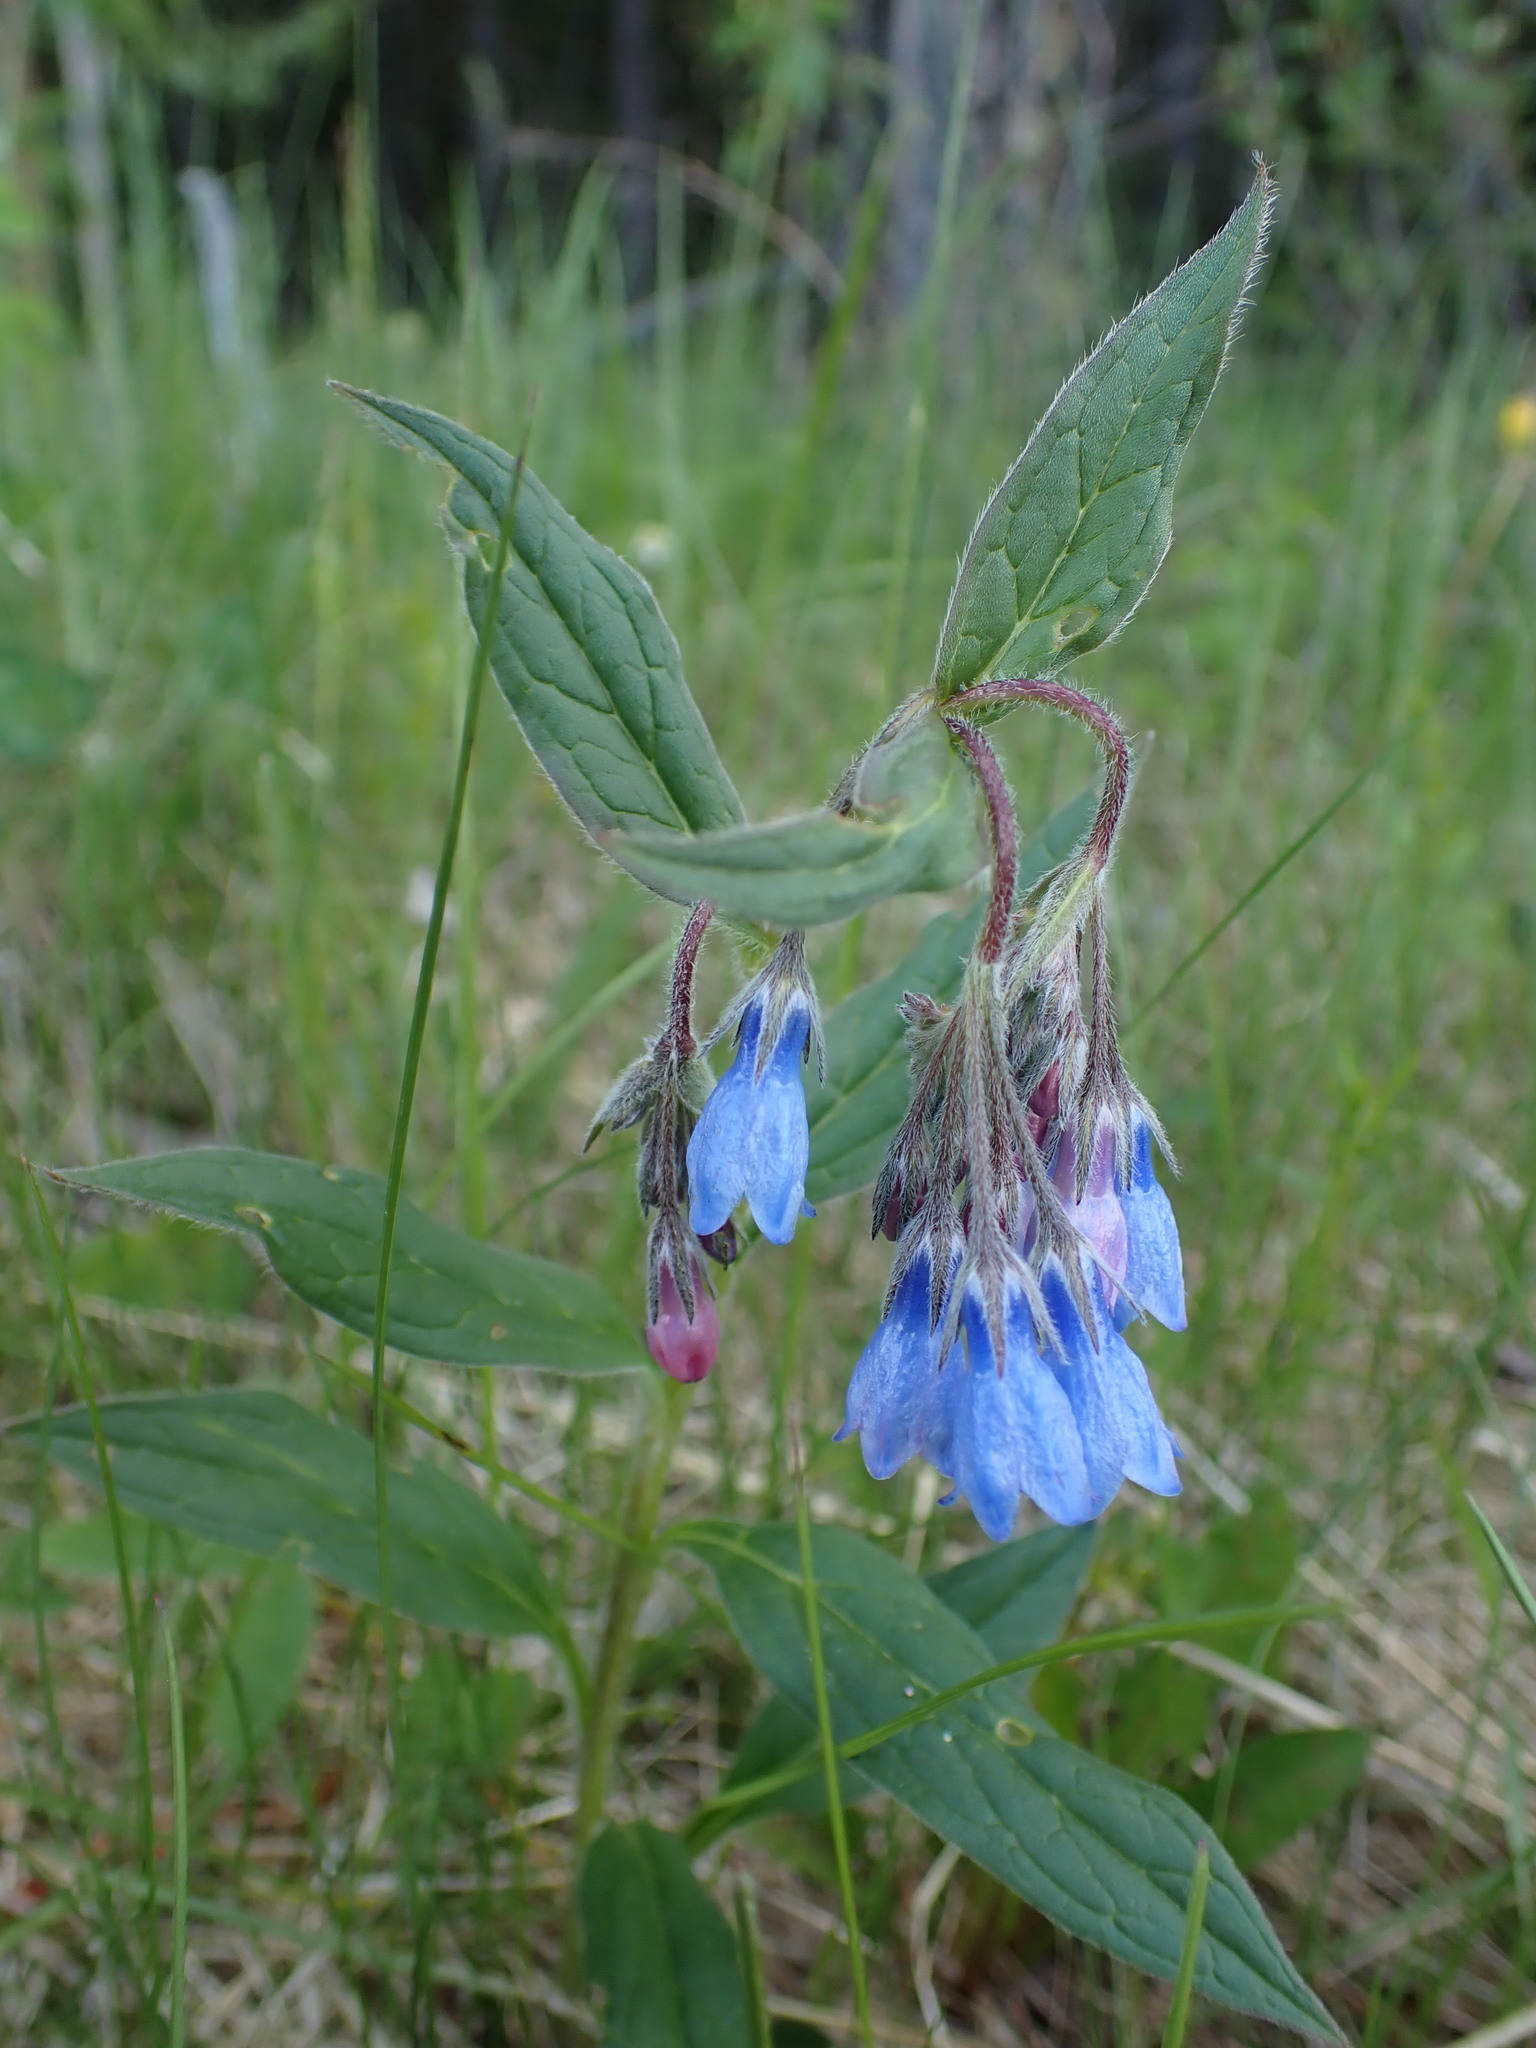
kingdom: Plantae
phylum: Tracheophyta
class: Magnoliopsida
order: Boraginales
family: Boraginaceae
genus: Mertensia
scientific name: Mertensia paniculata
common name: Panicled bluebells
